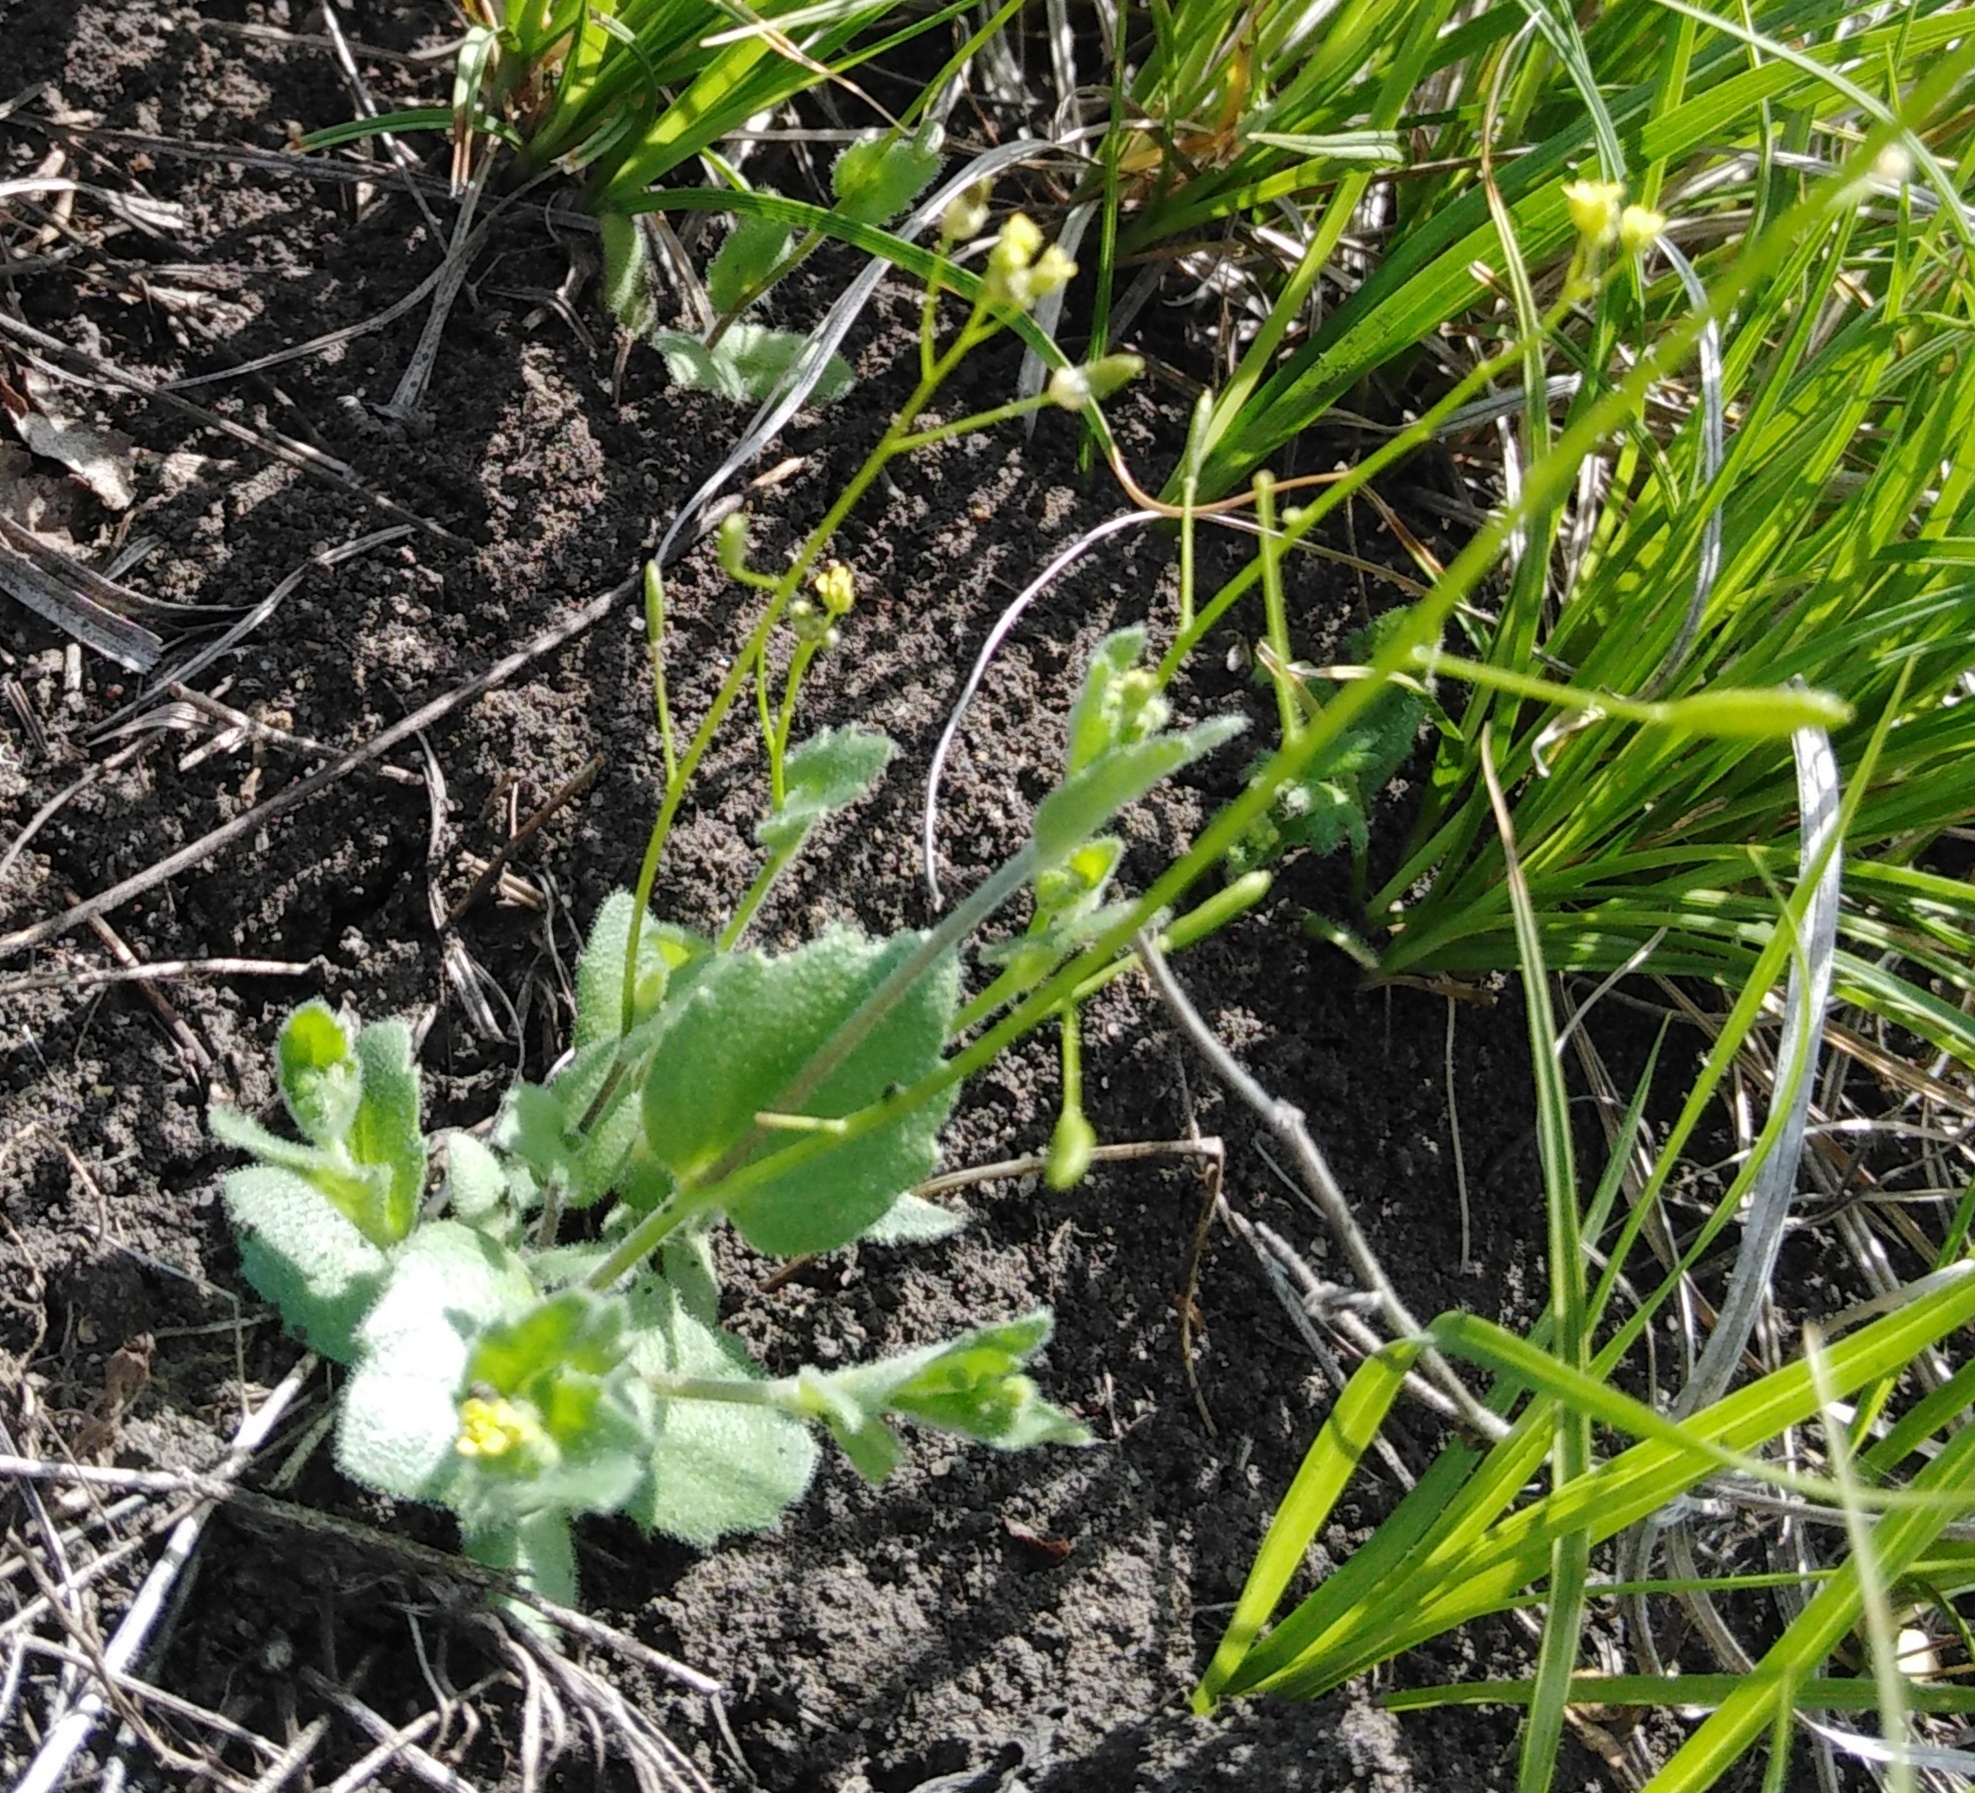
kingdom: Plantae
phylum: Tracheophyta
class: Magnoliopsida
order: Brassicales
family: Brassicaceae
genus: Draba
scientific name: Draba nemorosa
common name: Wood whitlow-grass
